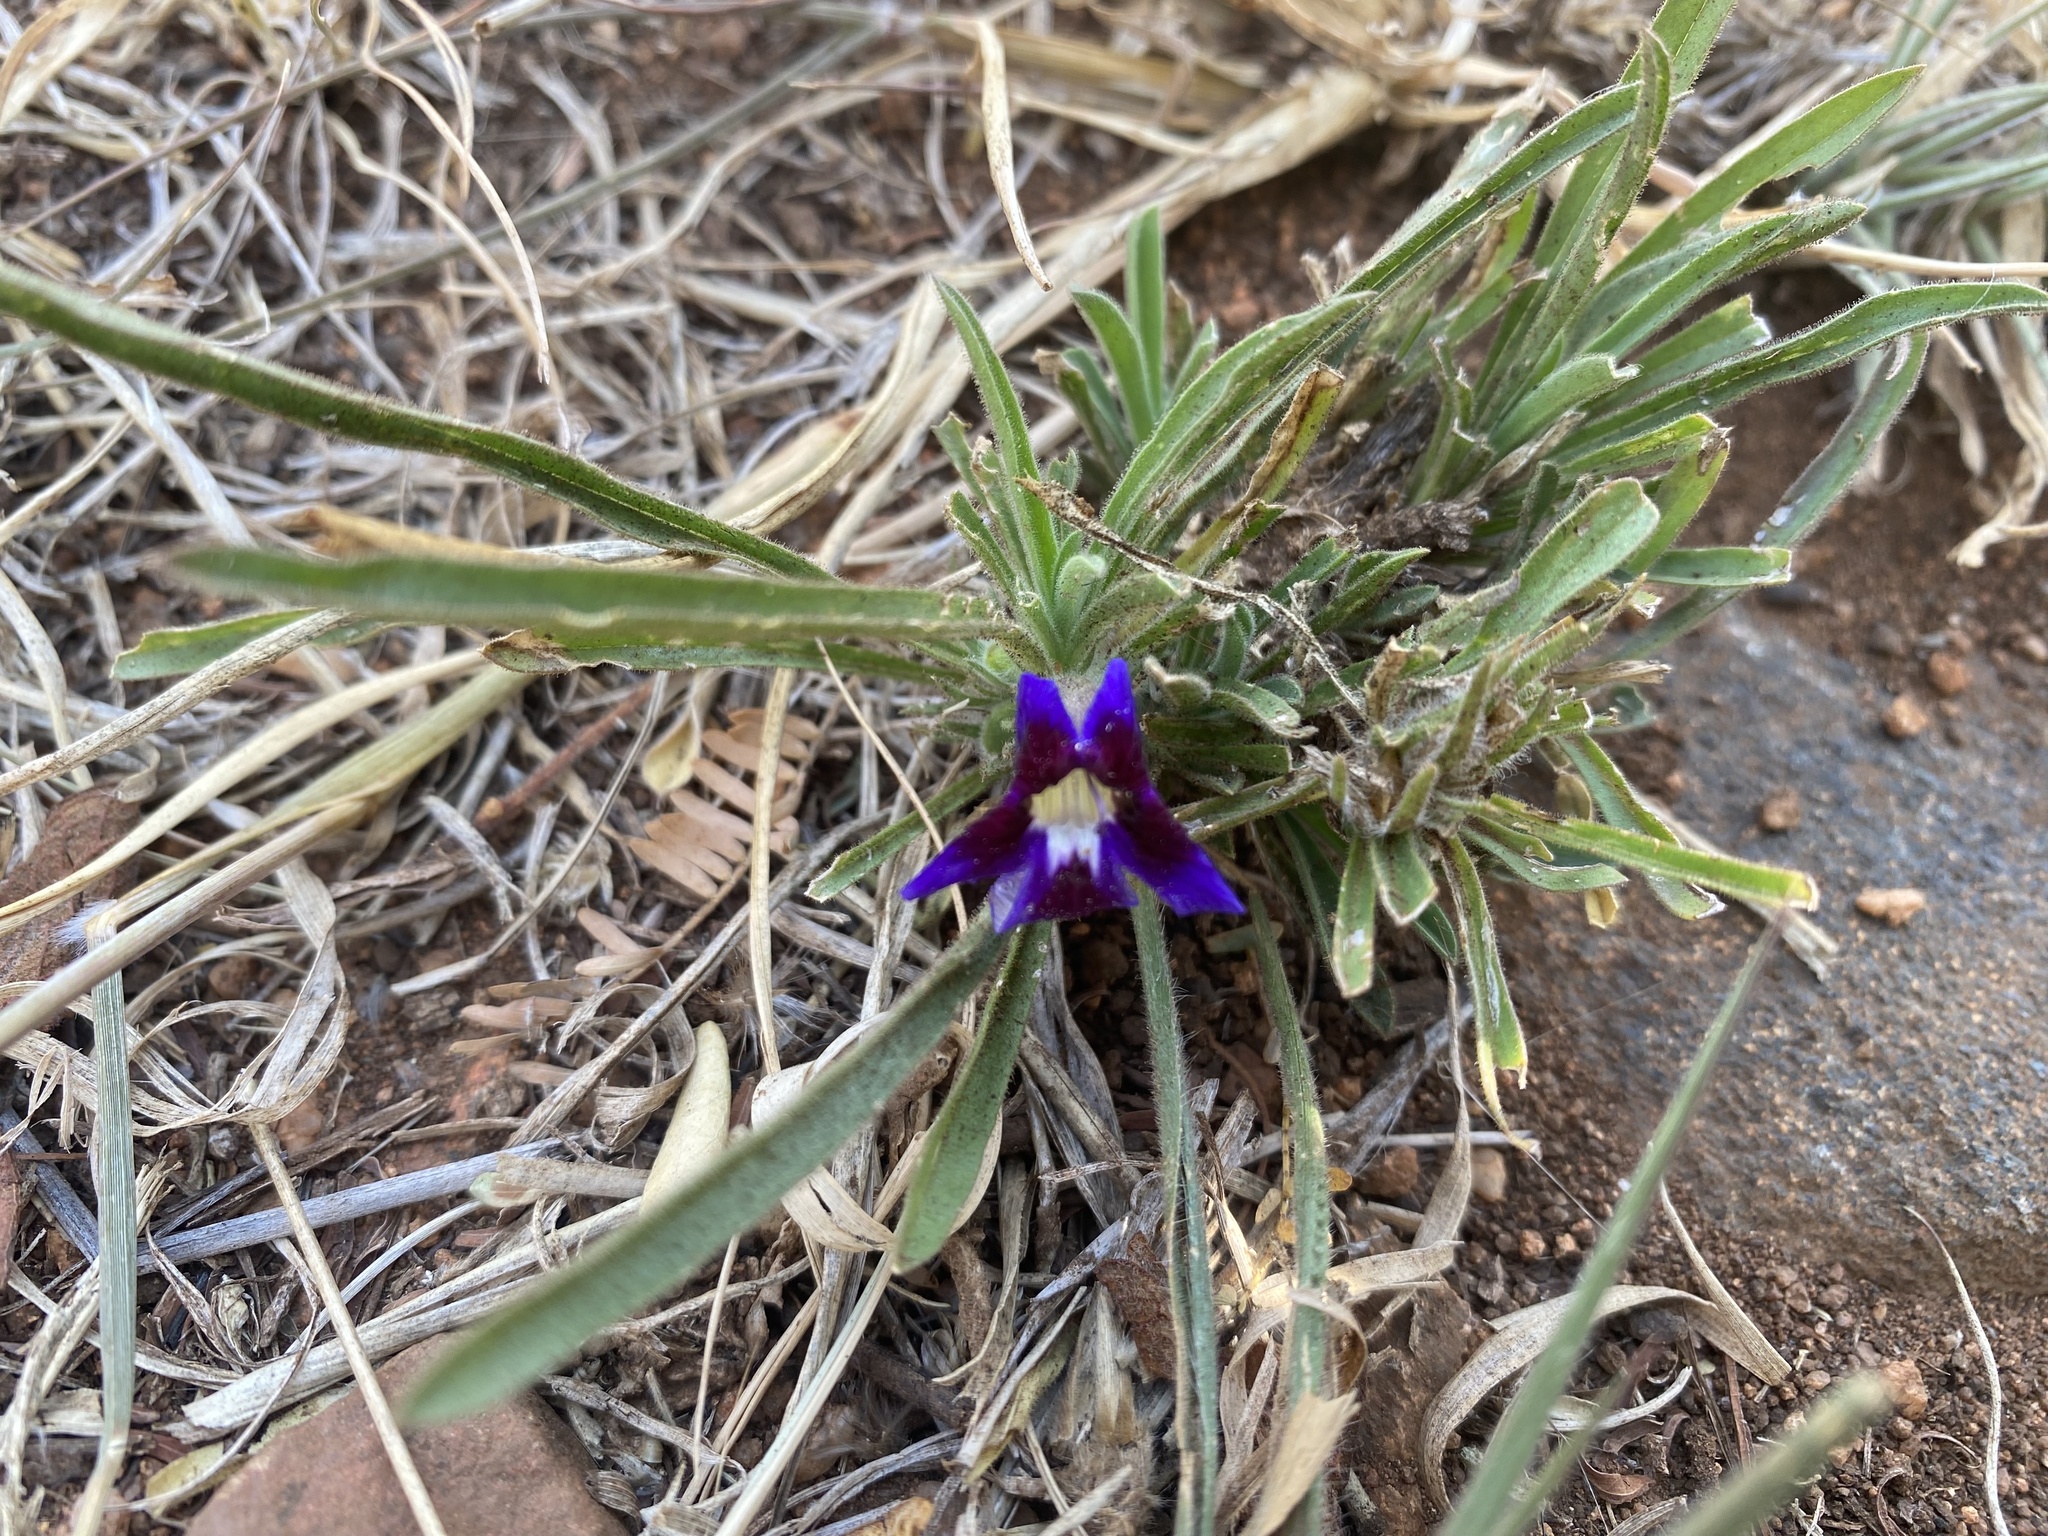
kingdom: Plantae
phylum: Tracheophyta
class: Magnoliopsida
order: Lamiales
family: Scrophulariaceae
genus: Aptosimum
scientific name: Aptosimum lineare
